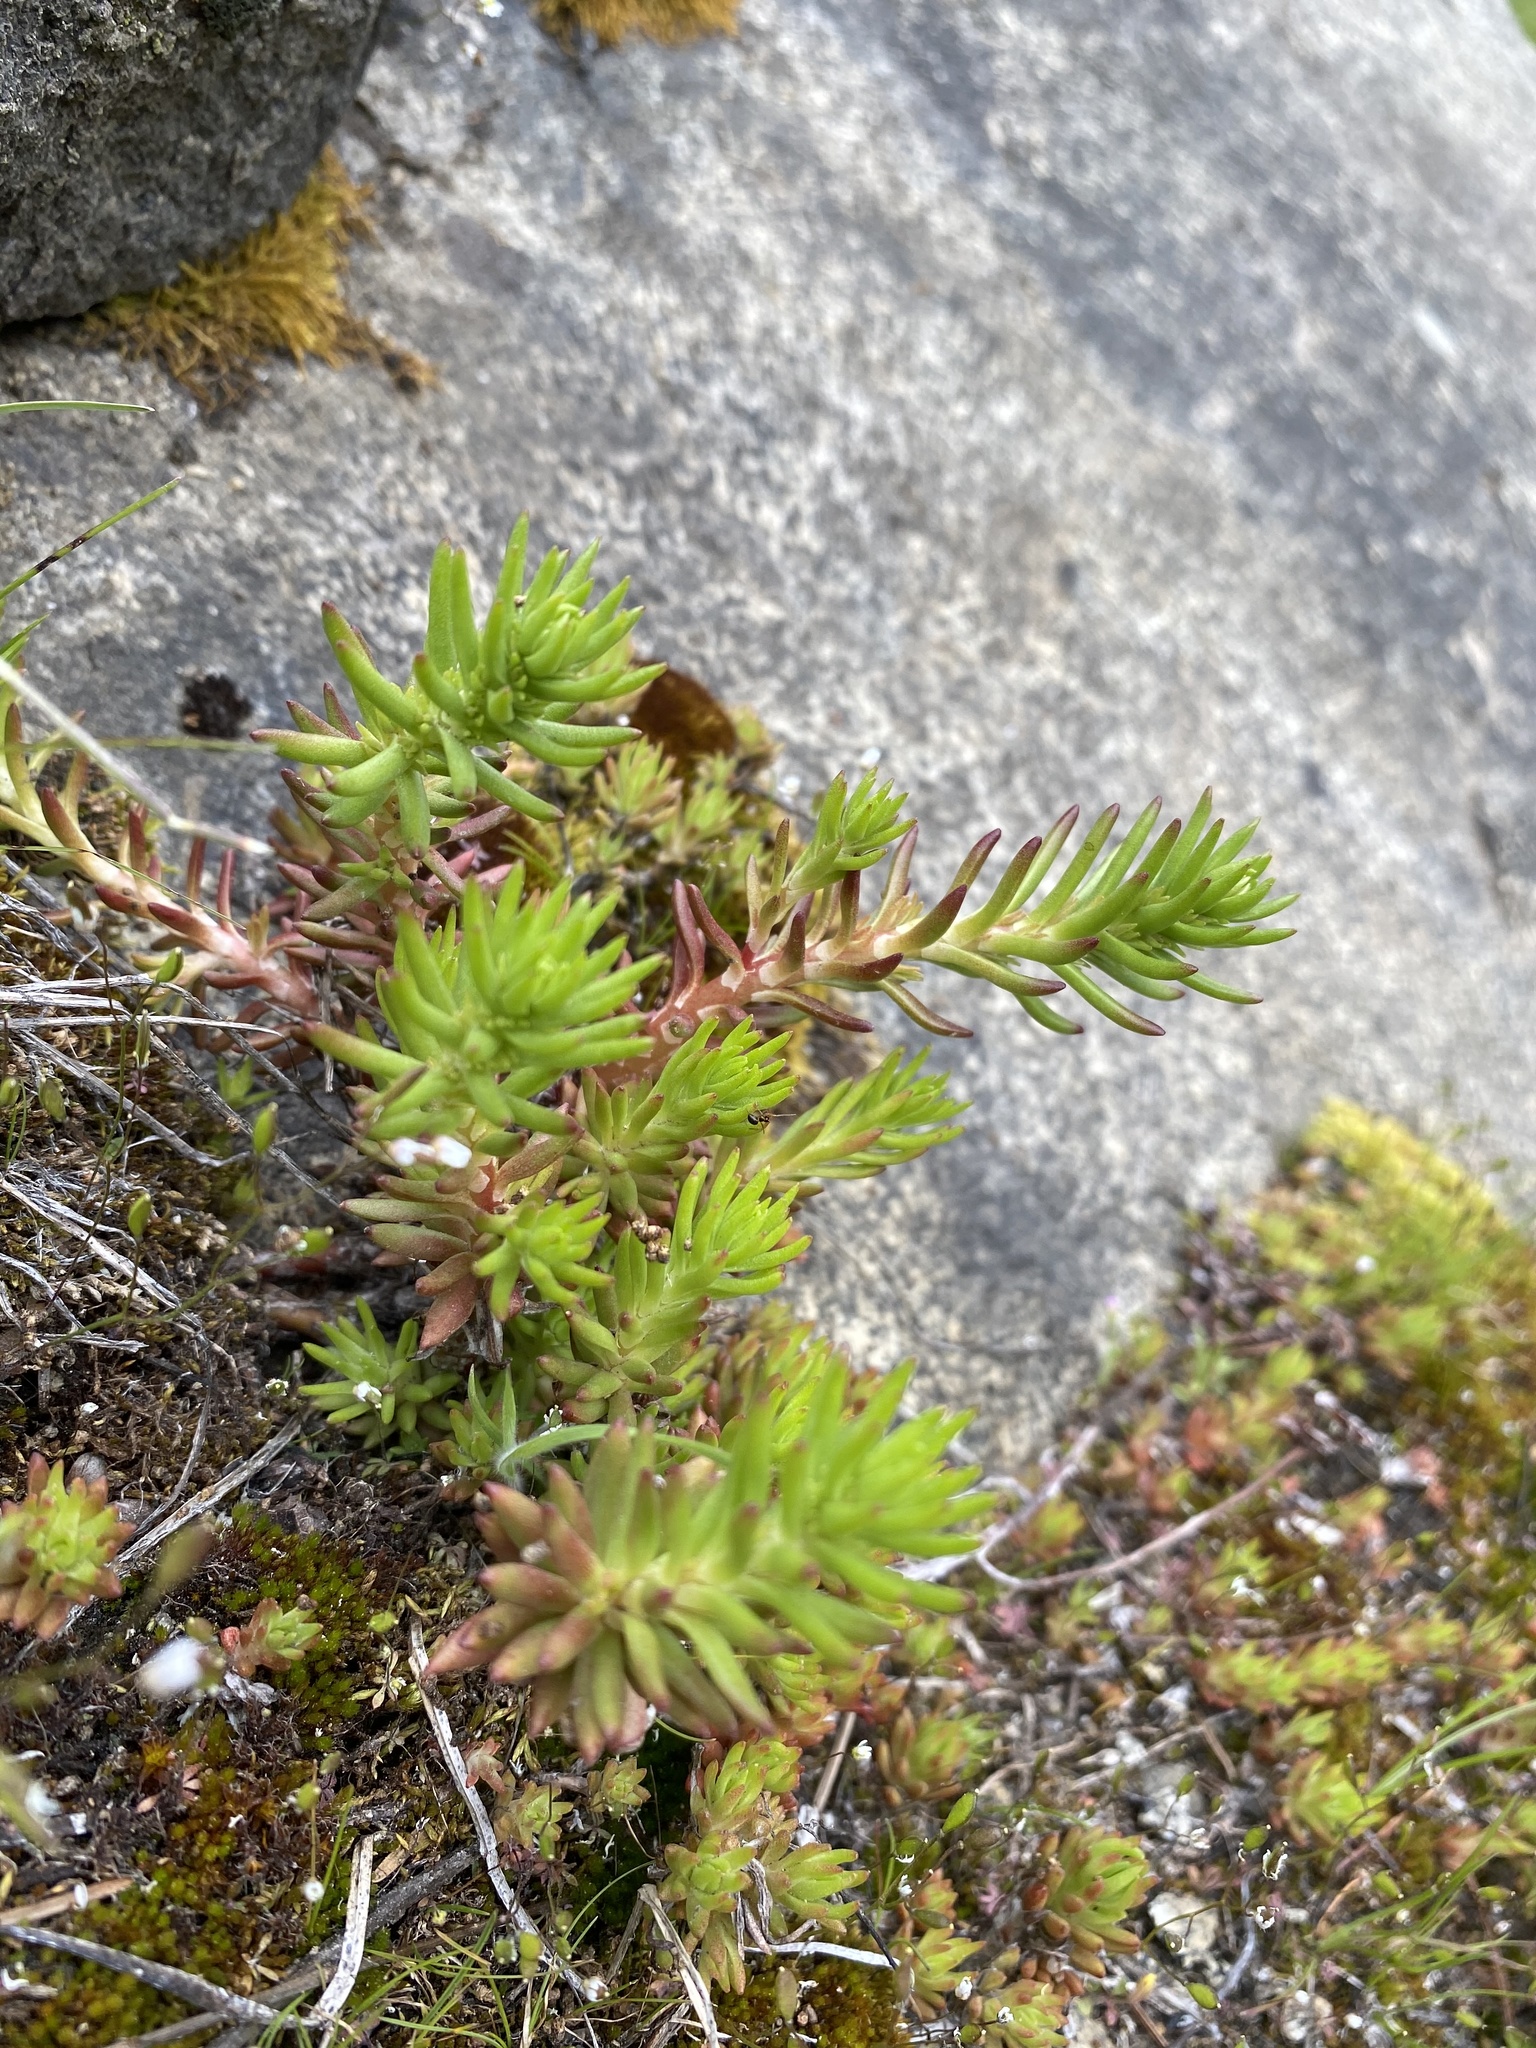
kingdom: Plantae
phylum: Tracheophyta
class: Magnoliopsida
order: Saxifragales
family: Crassulaceae
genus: Sedum
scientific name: Sedum stenopetalum
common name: Narrow-petaled stonecrop
